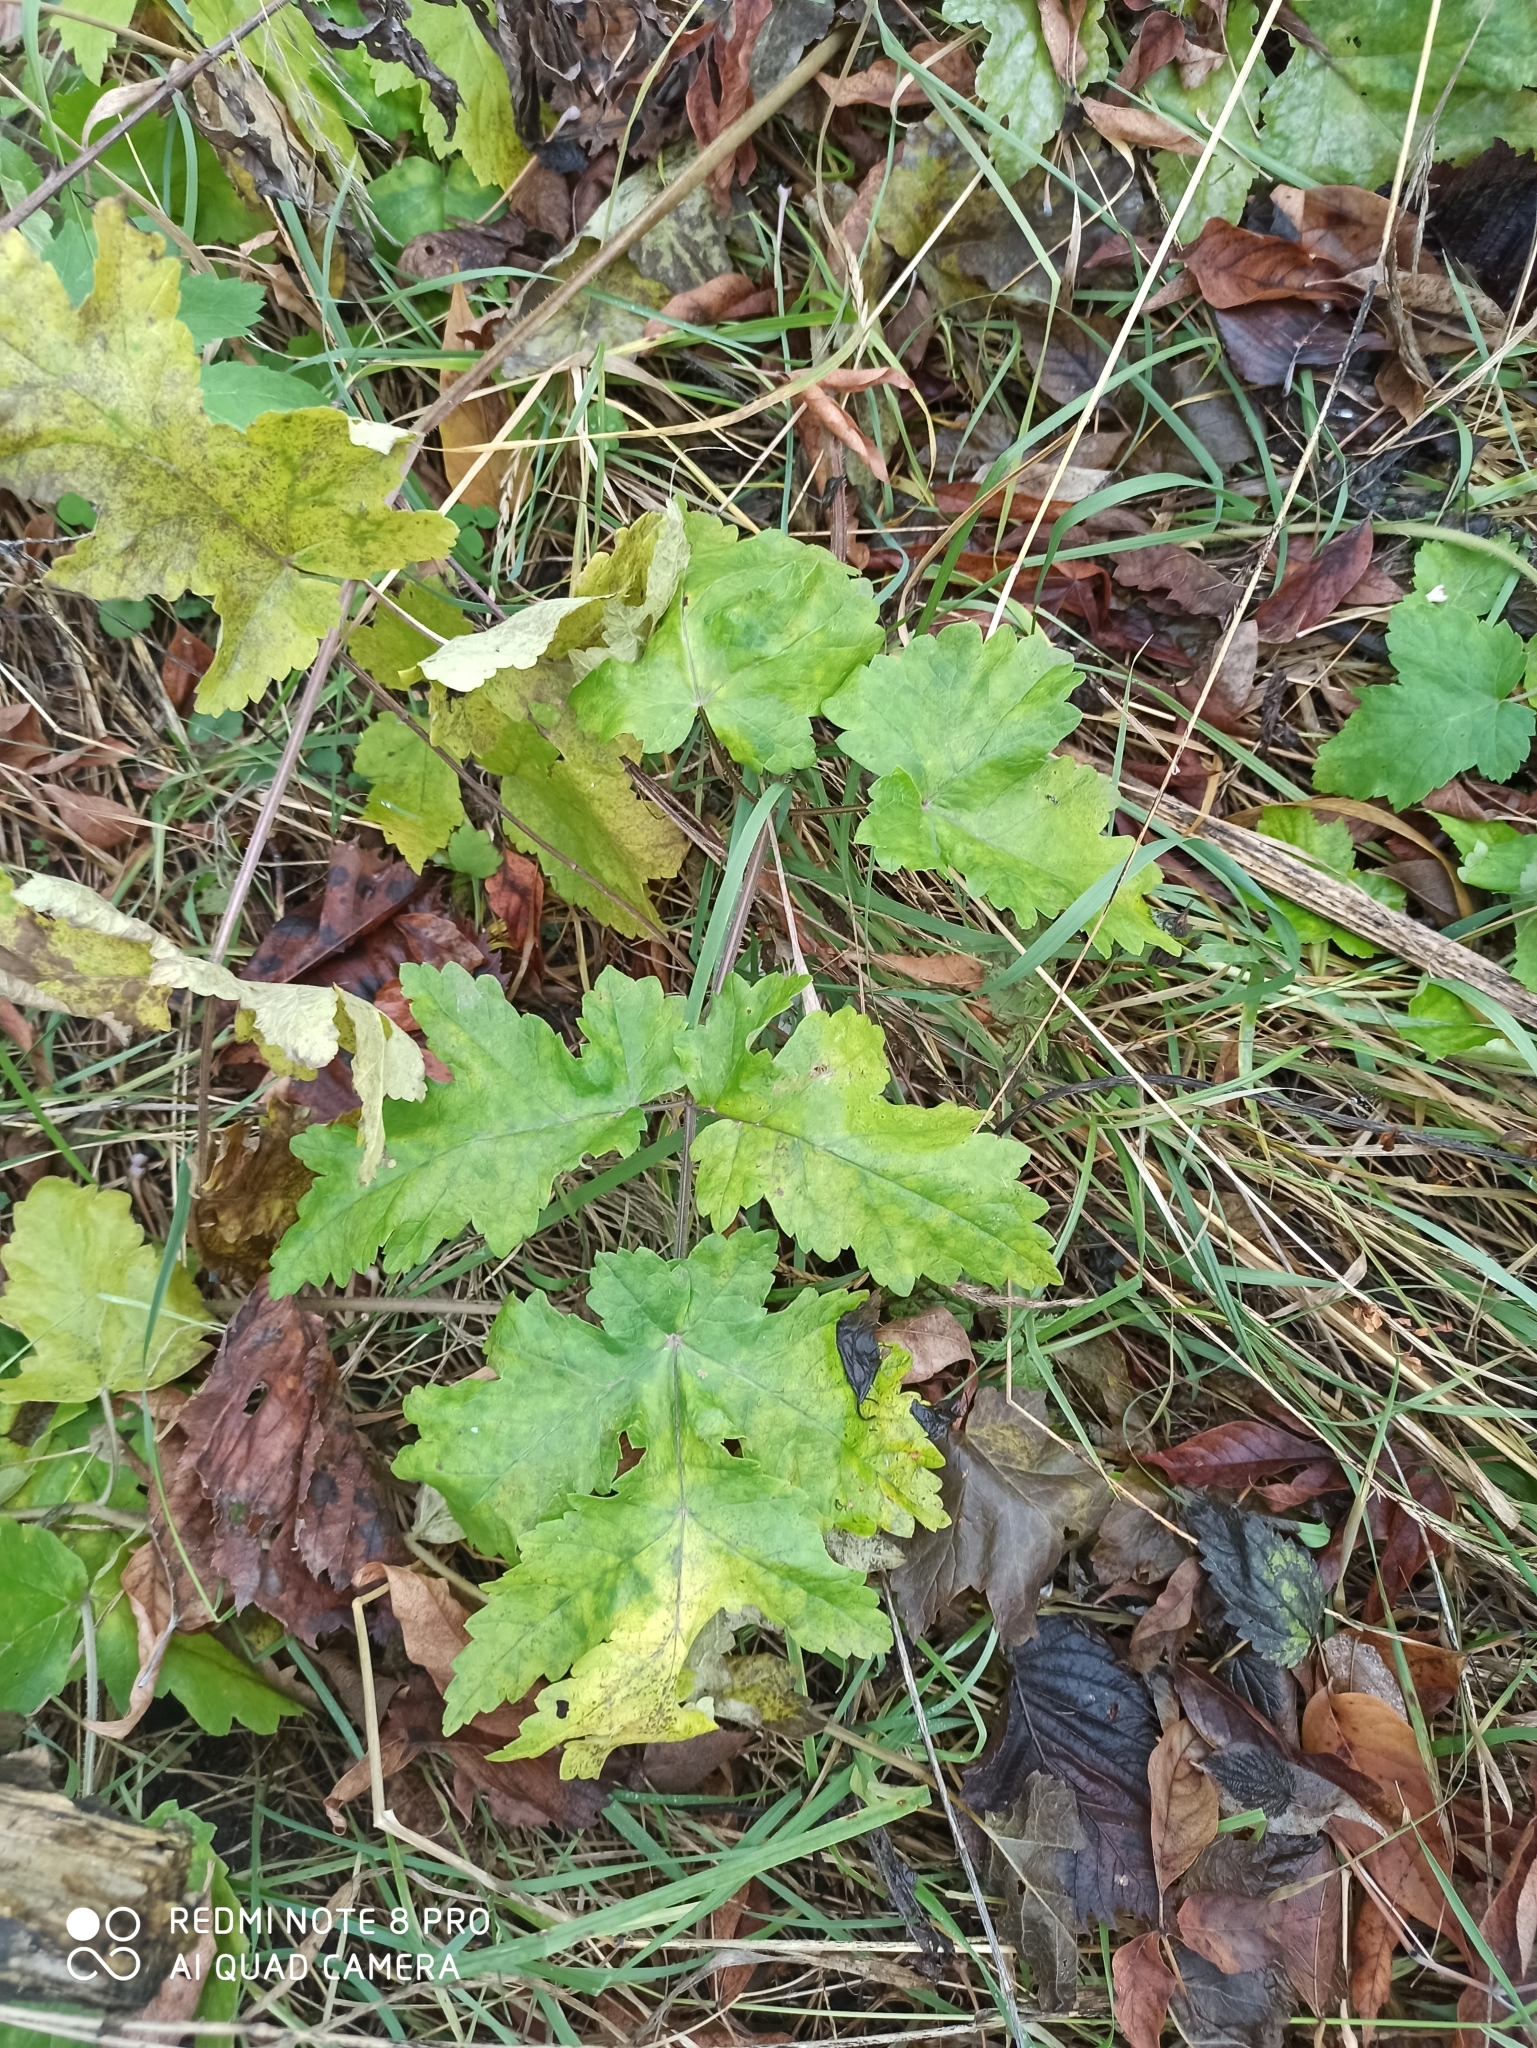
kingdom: Plantae
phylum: Tracheophyta
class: Magnoliopsida
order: Apiales
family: Apiaceae
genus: Heracleum
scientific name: Heracleum sphondylium
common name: Hogweed
